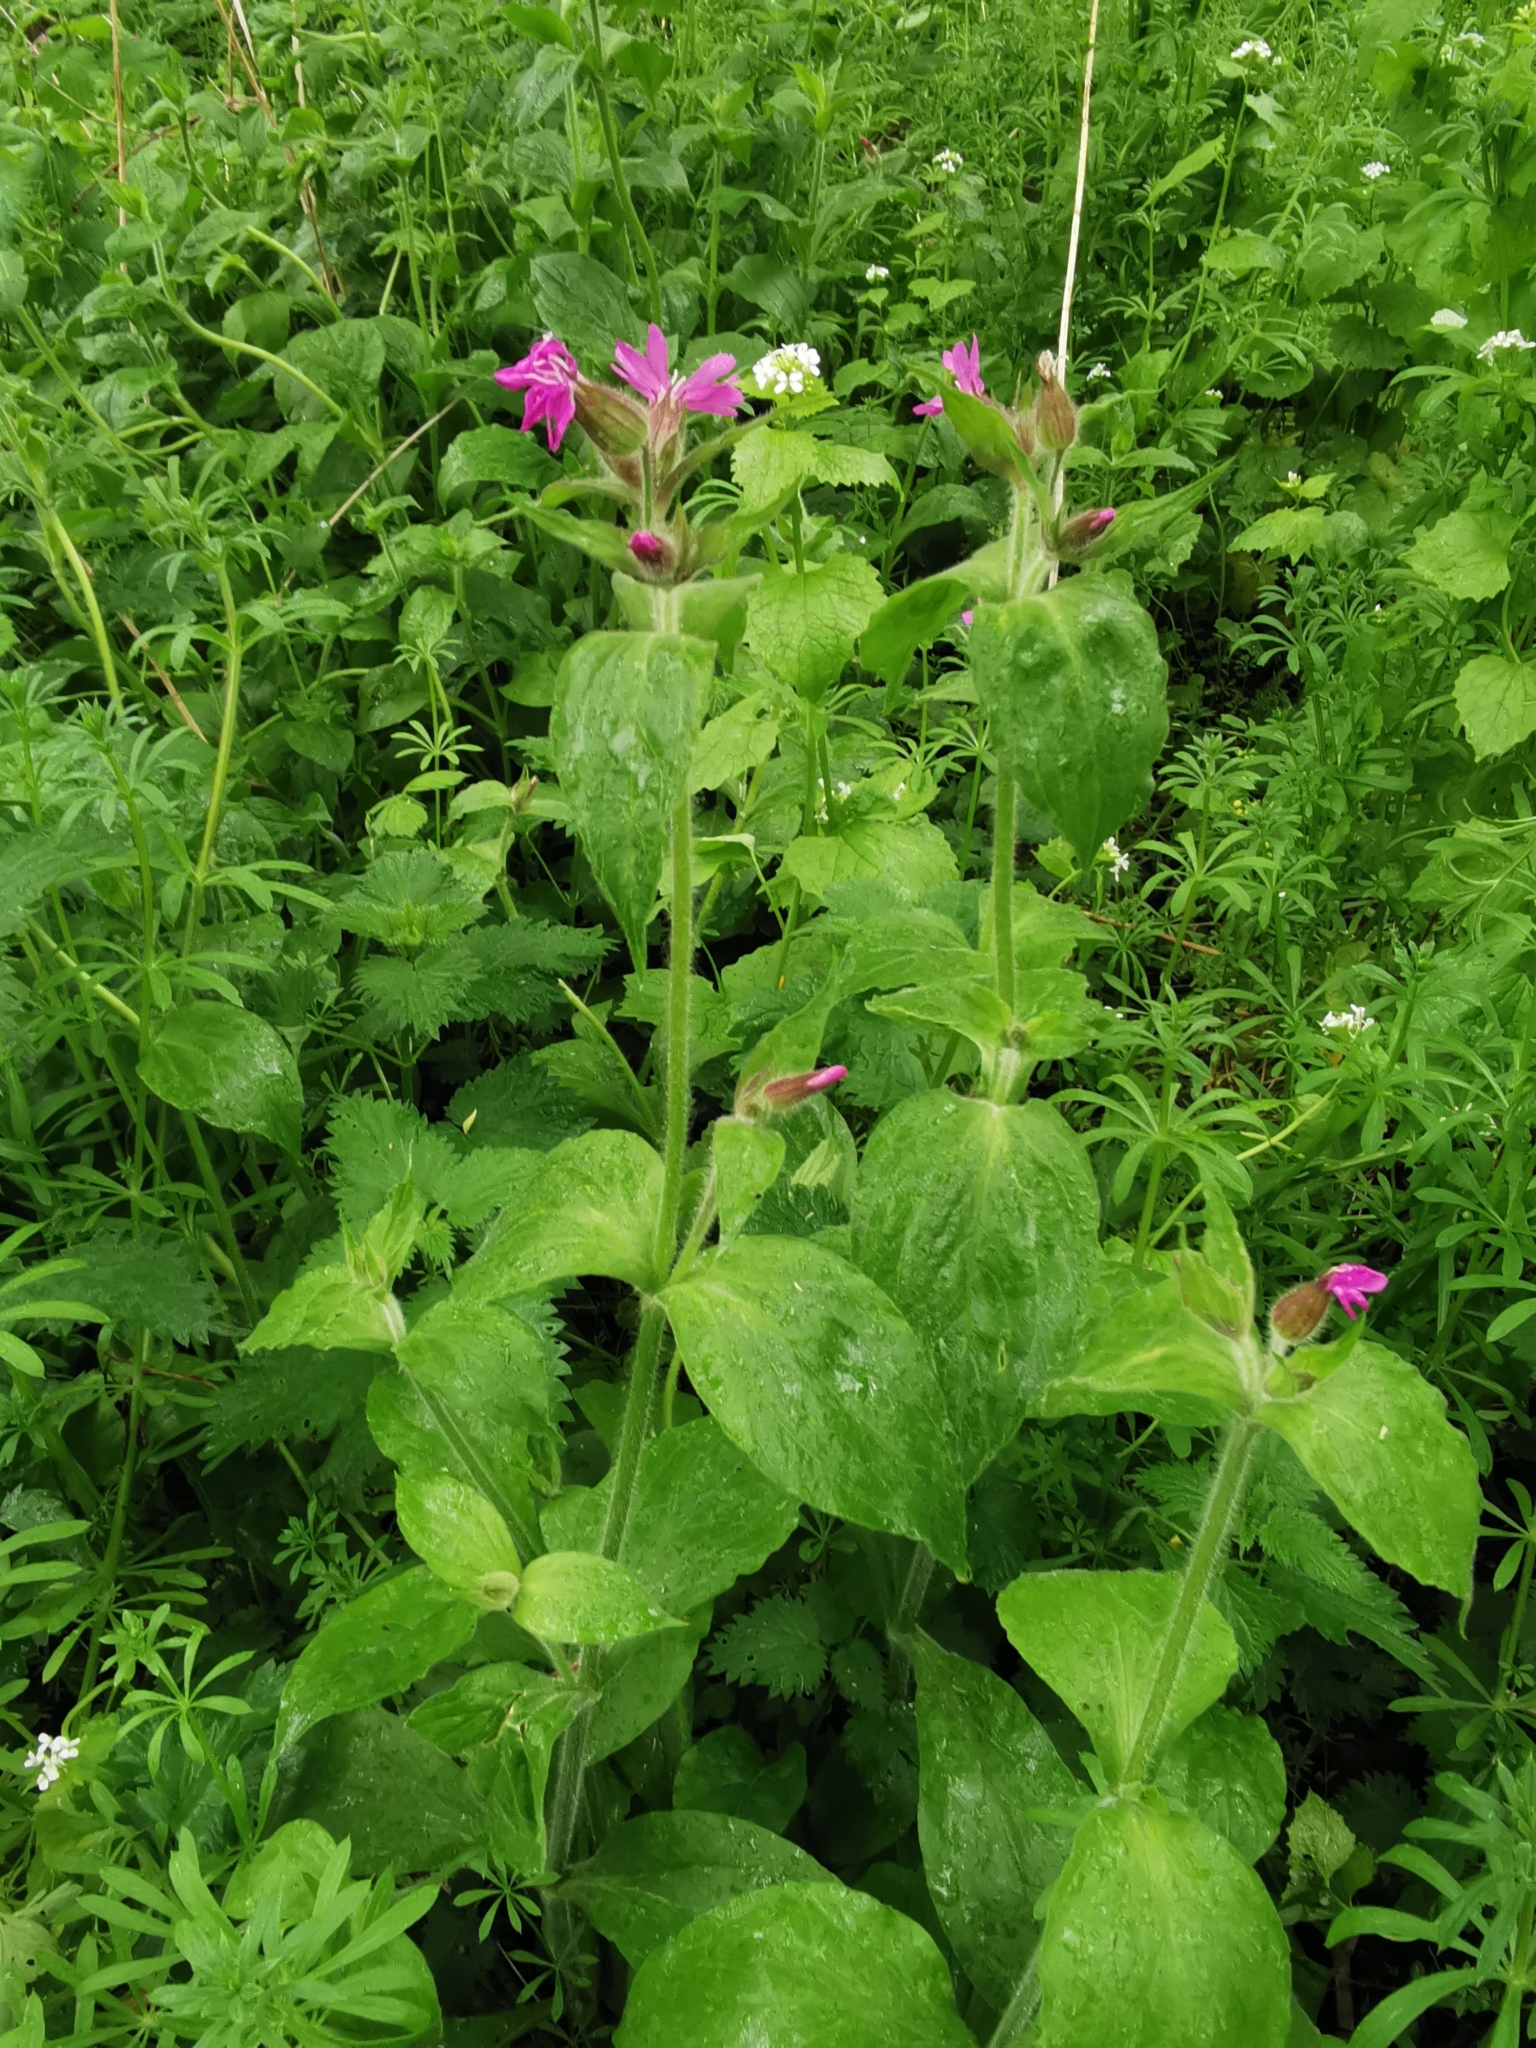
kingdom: Plantae
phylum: Tracheophyta
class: Magnoliopsida
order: Caryophyllales
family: Caryophyllaceae
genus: Silene
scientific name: Silene dioica
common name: Red campion
